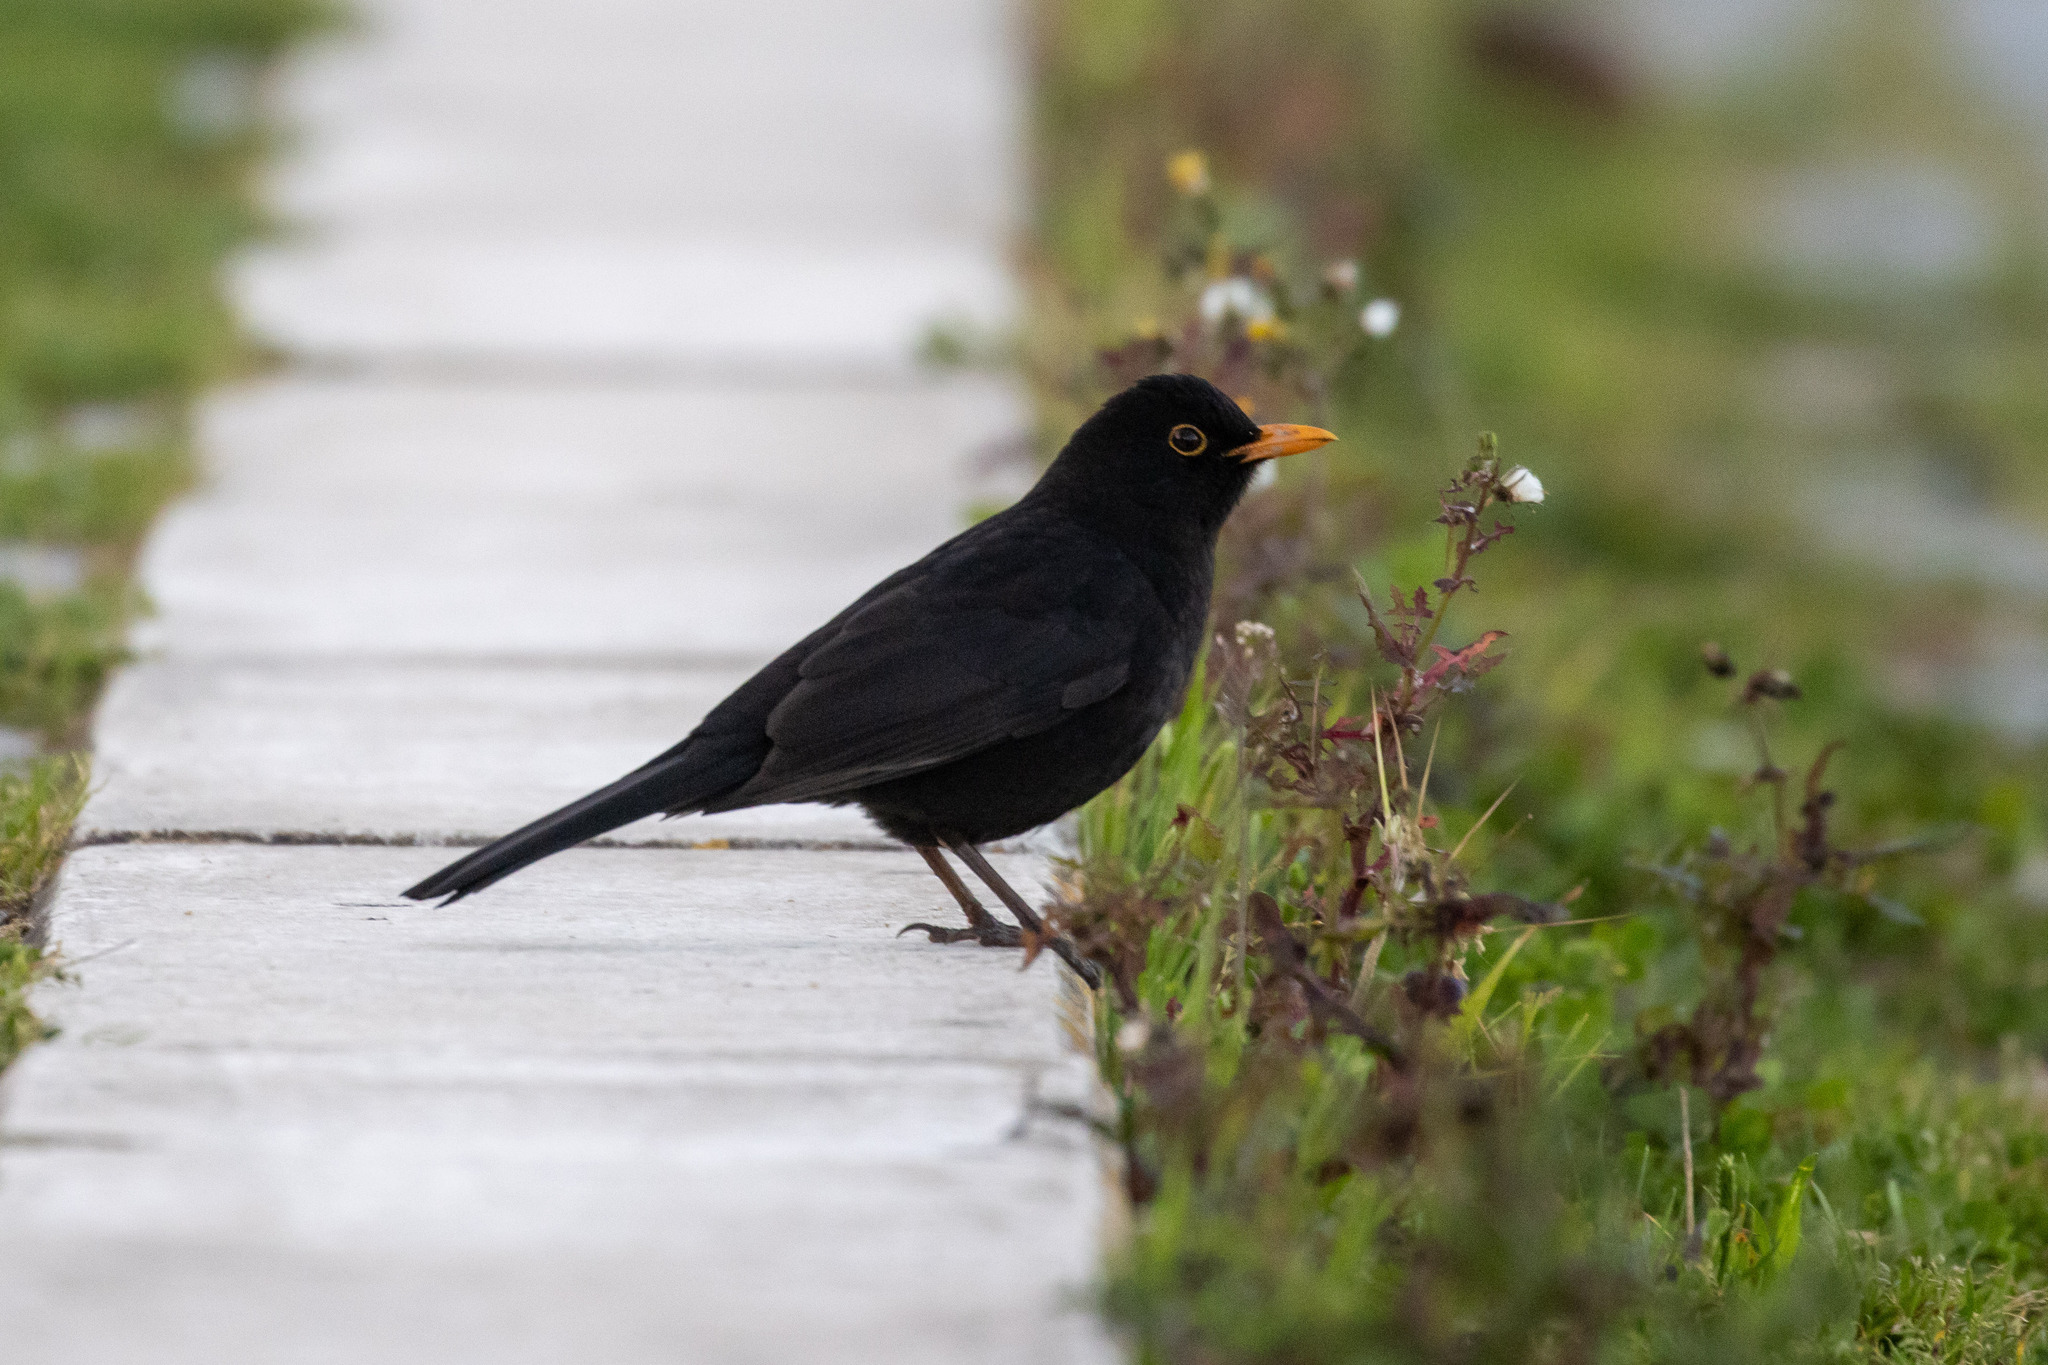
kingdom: Animalia
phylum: Chordata
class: Aves
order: Passeriformes
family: Turdidae
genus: Turdus
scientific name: Turdus merula
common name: Common blackbird
